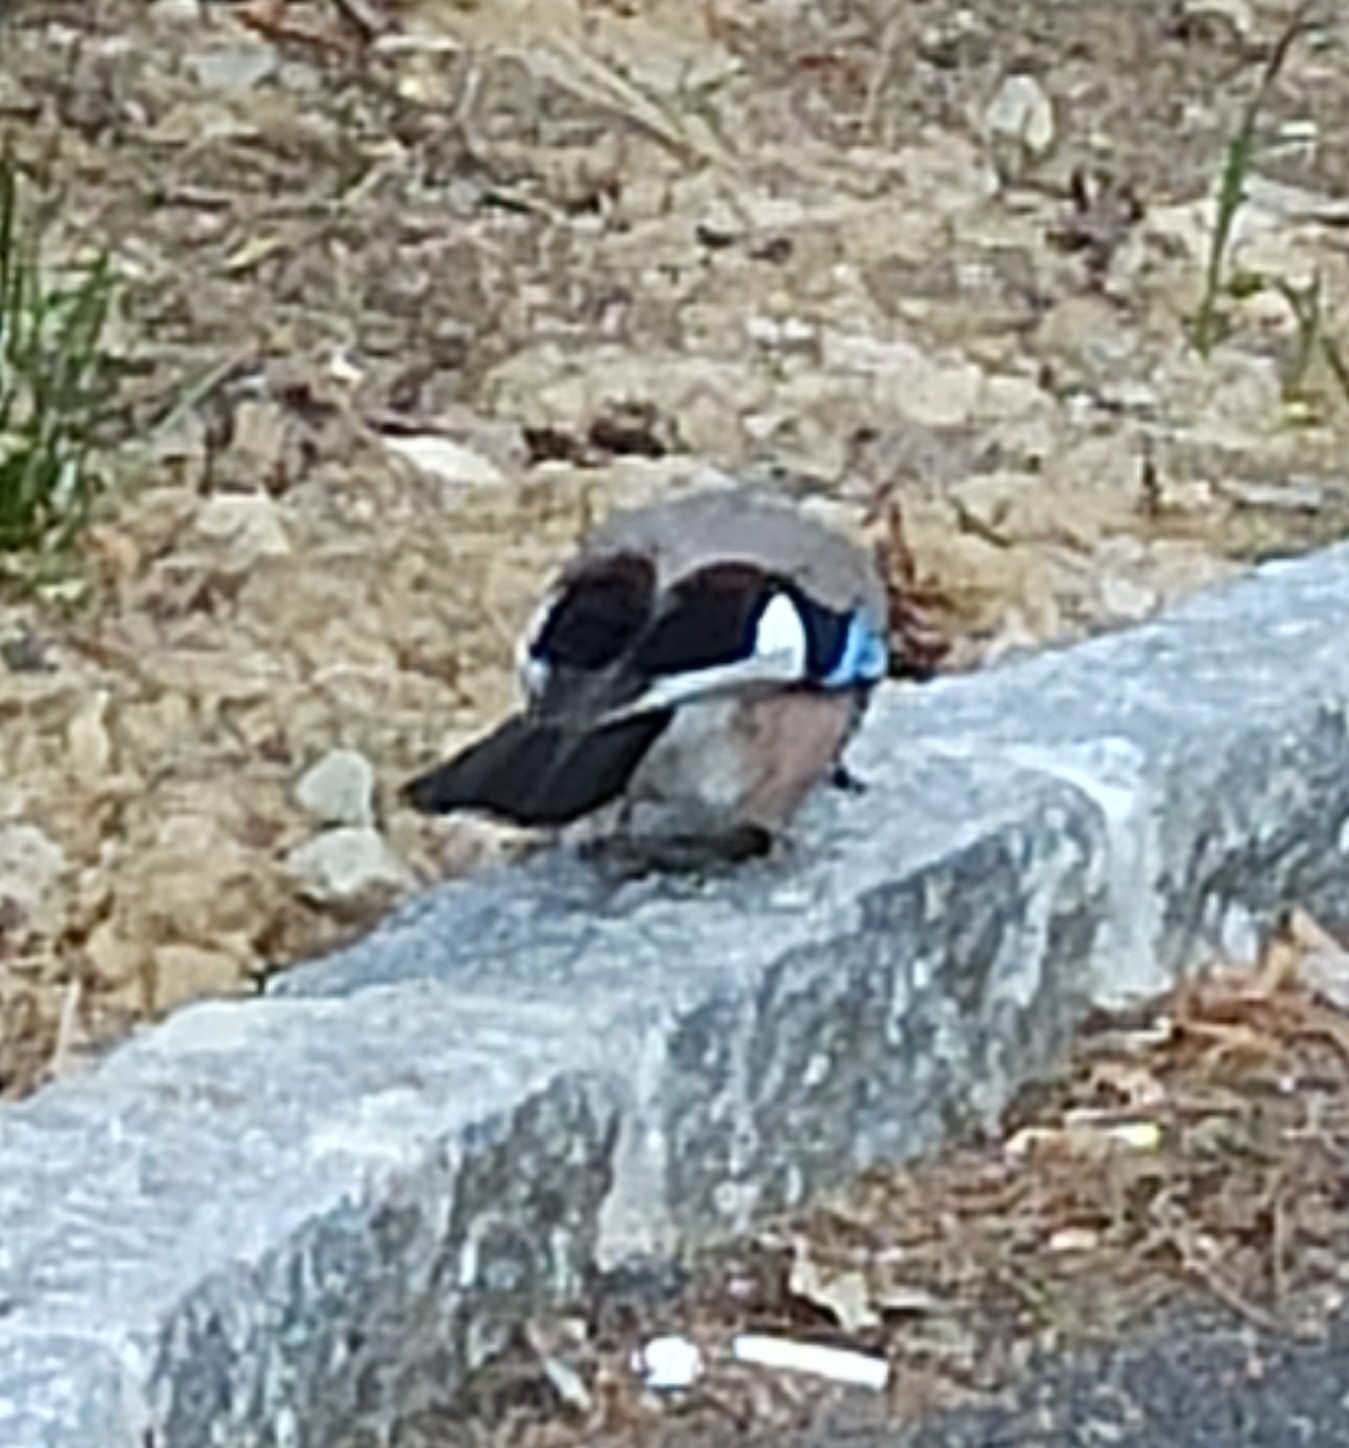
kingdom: Animalia
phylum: Chordata
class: Aves
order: Passeriformes
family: Corvidae
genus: Garrulus
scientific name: Garrulus glandarius
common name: Eurasian jay
